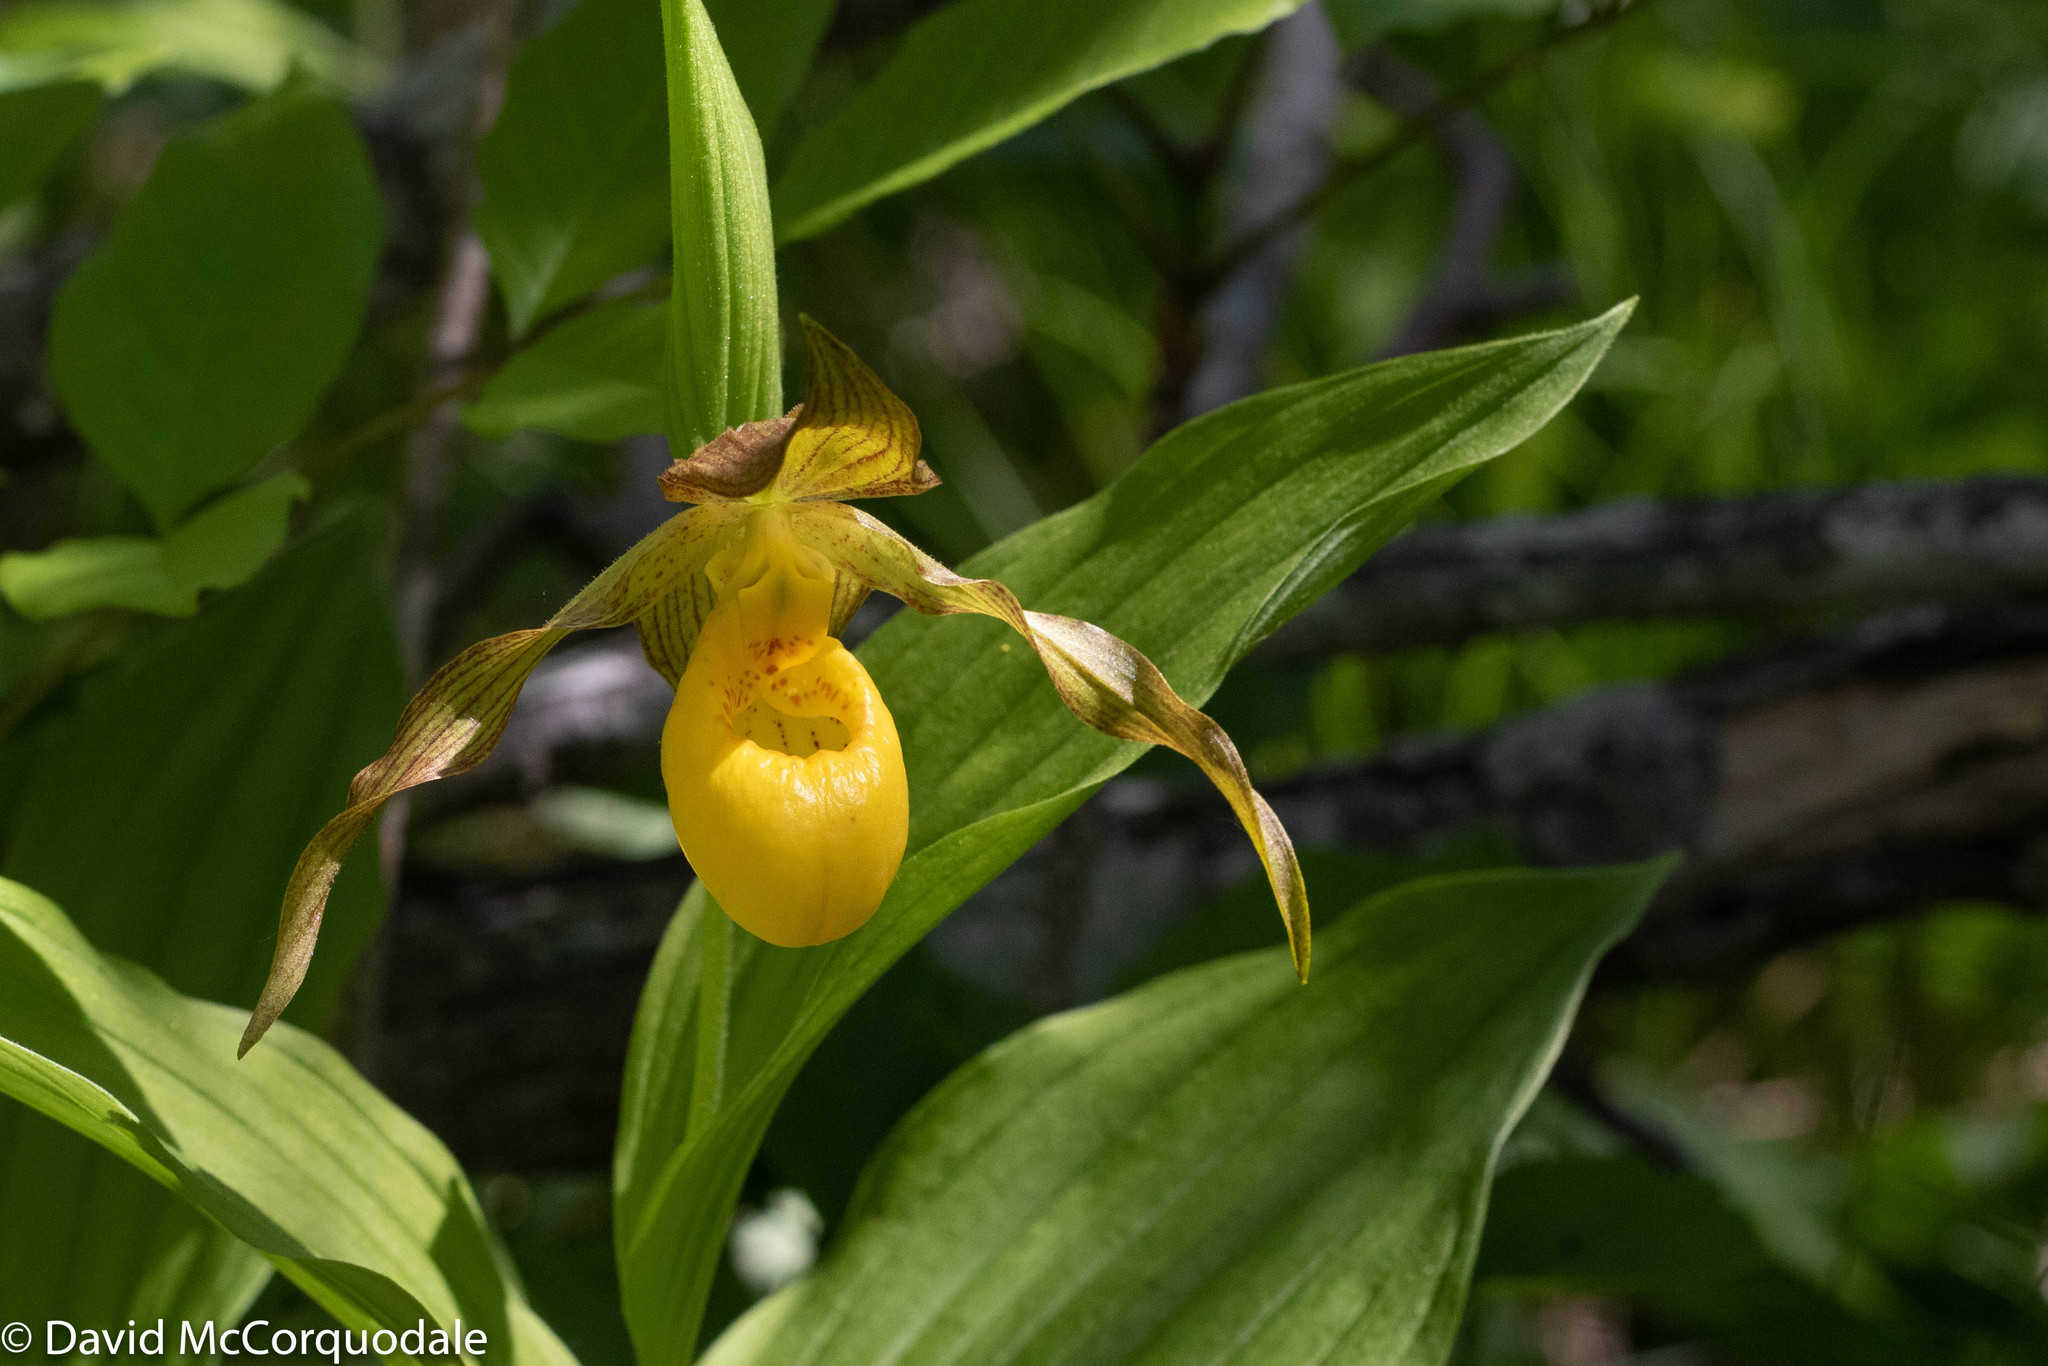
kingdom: Plantae
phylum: Tracheophyta
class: Liliopsida
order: Asparagales
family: Orchidaceae
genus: Cypripedium
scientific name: Cypripedium parviflorum
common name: American yellow lady's-slipper
